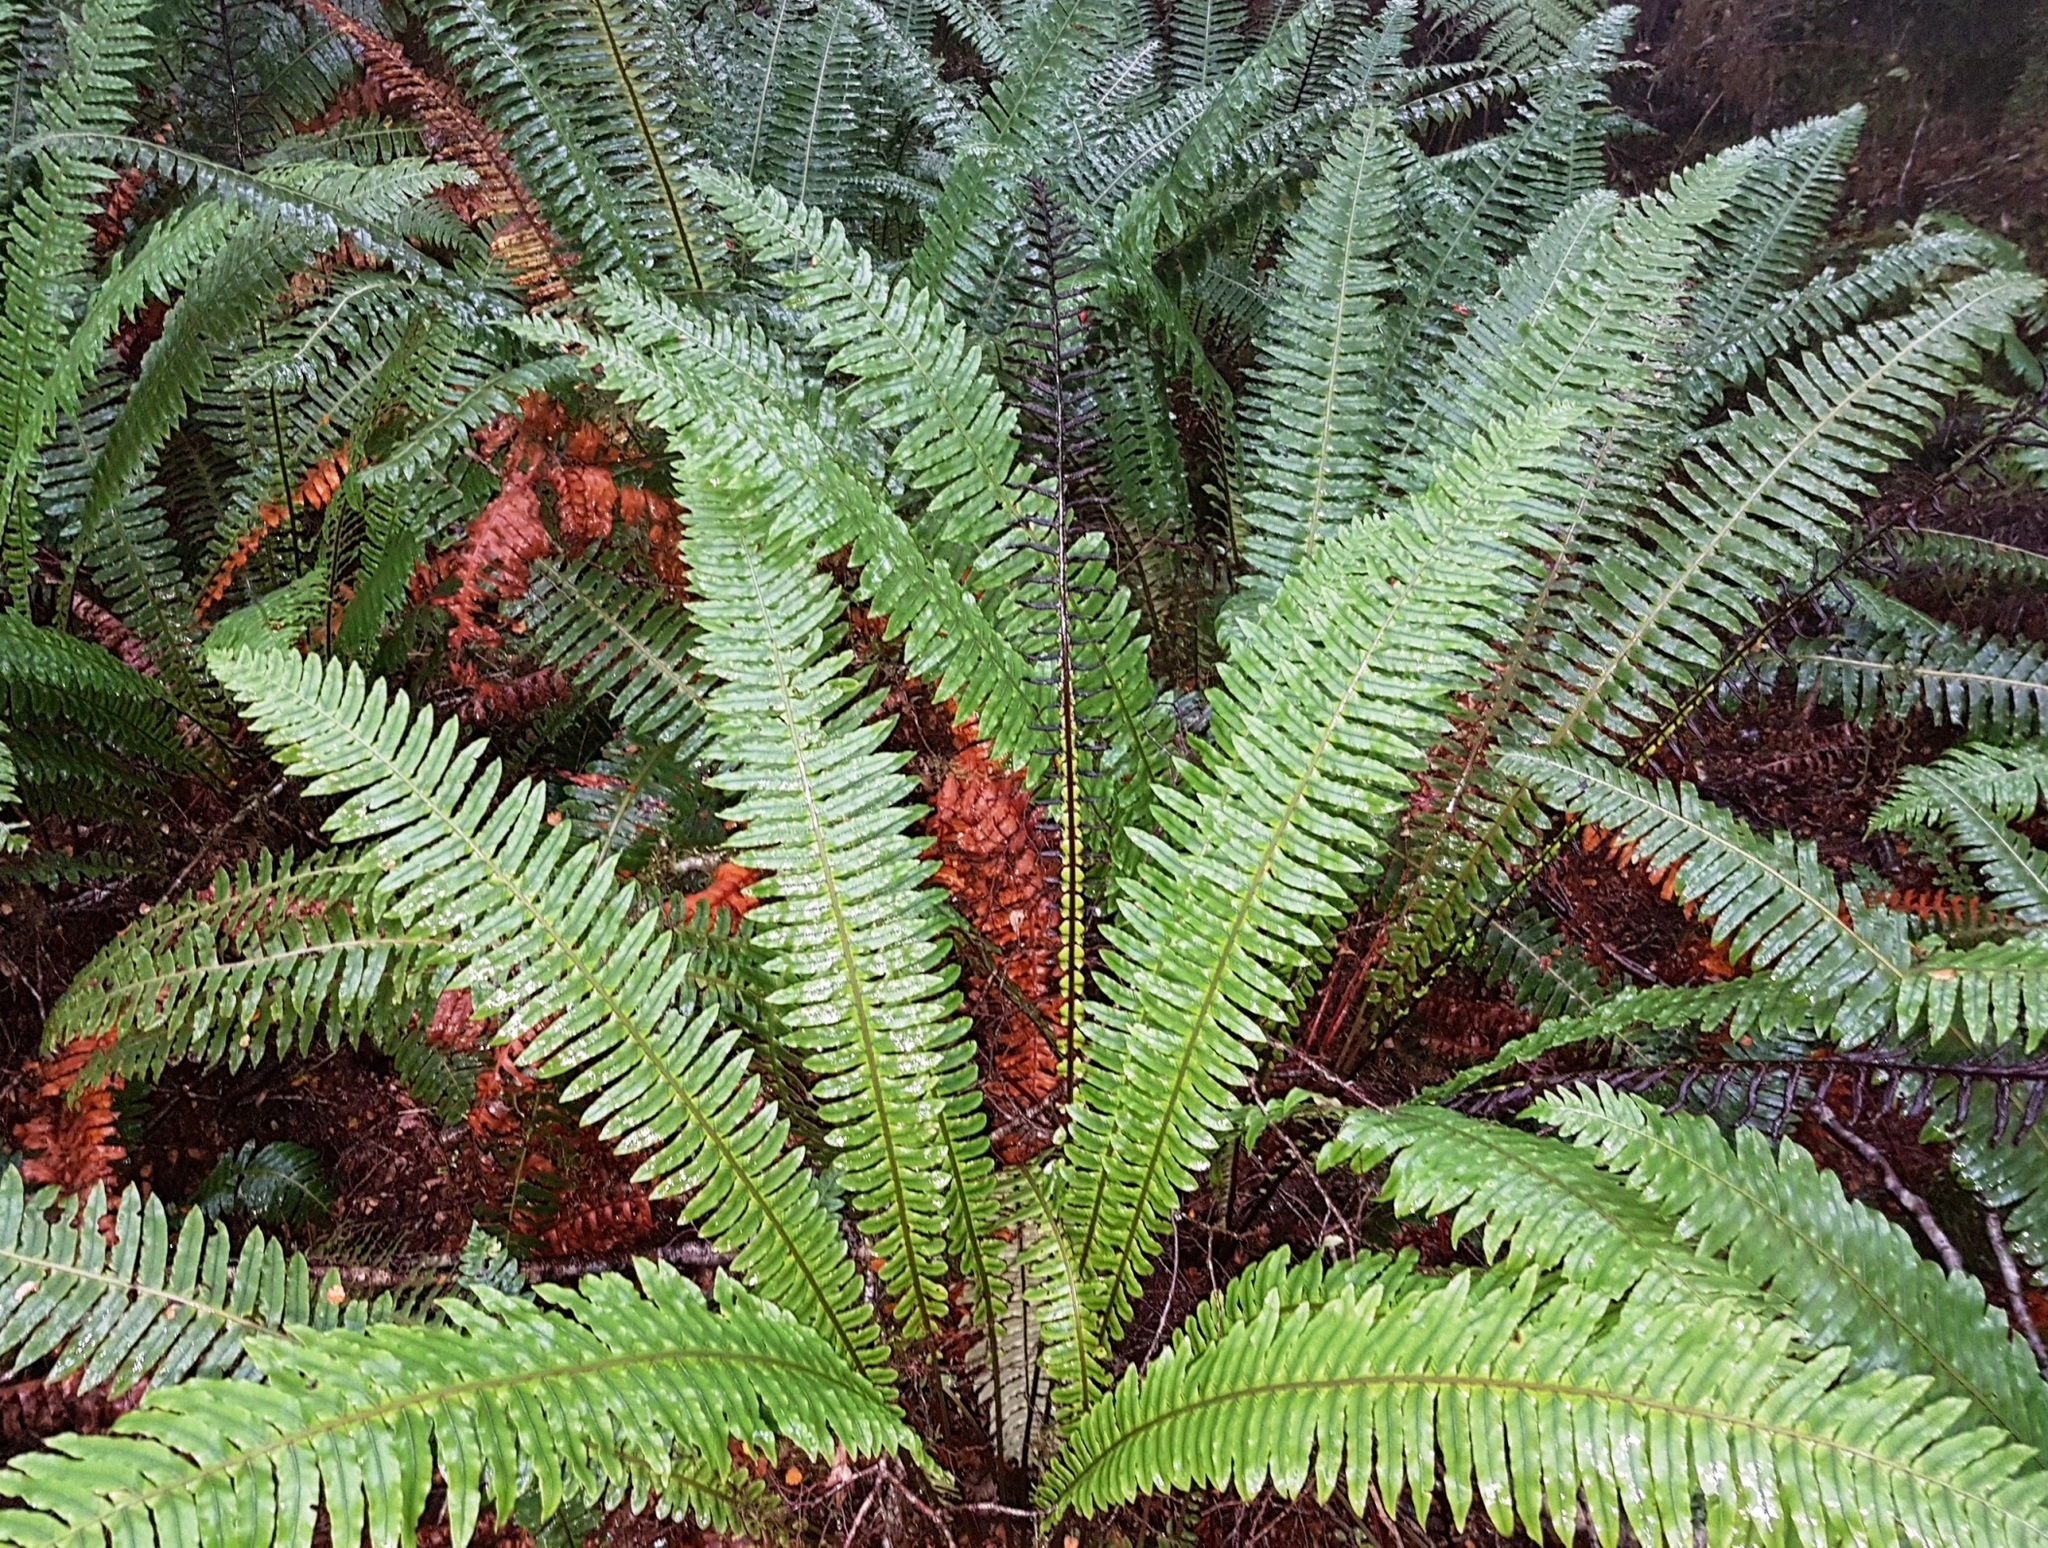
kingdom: Plantae
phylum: Tracheophyta
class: Polypodiopsida
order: Polypodiales
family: Blechnaceae
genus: Lomaria
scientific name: Lomaria discolor
